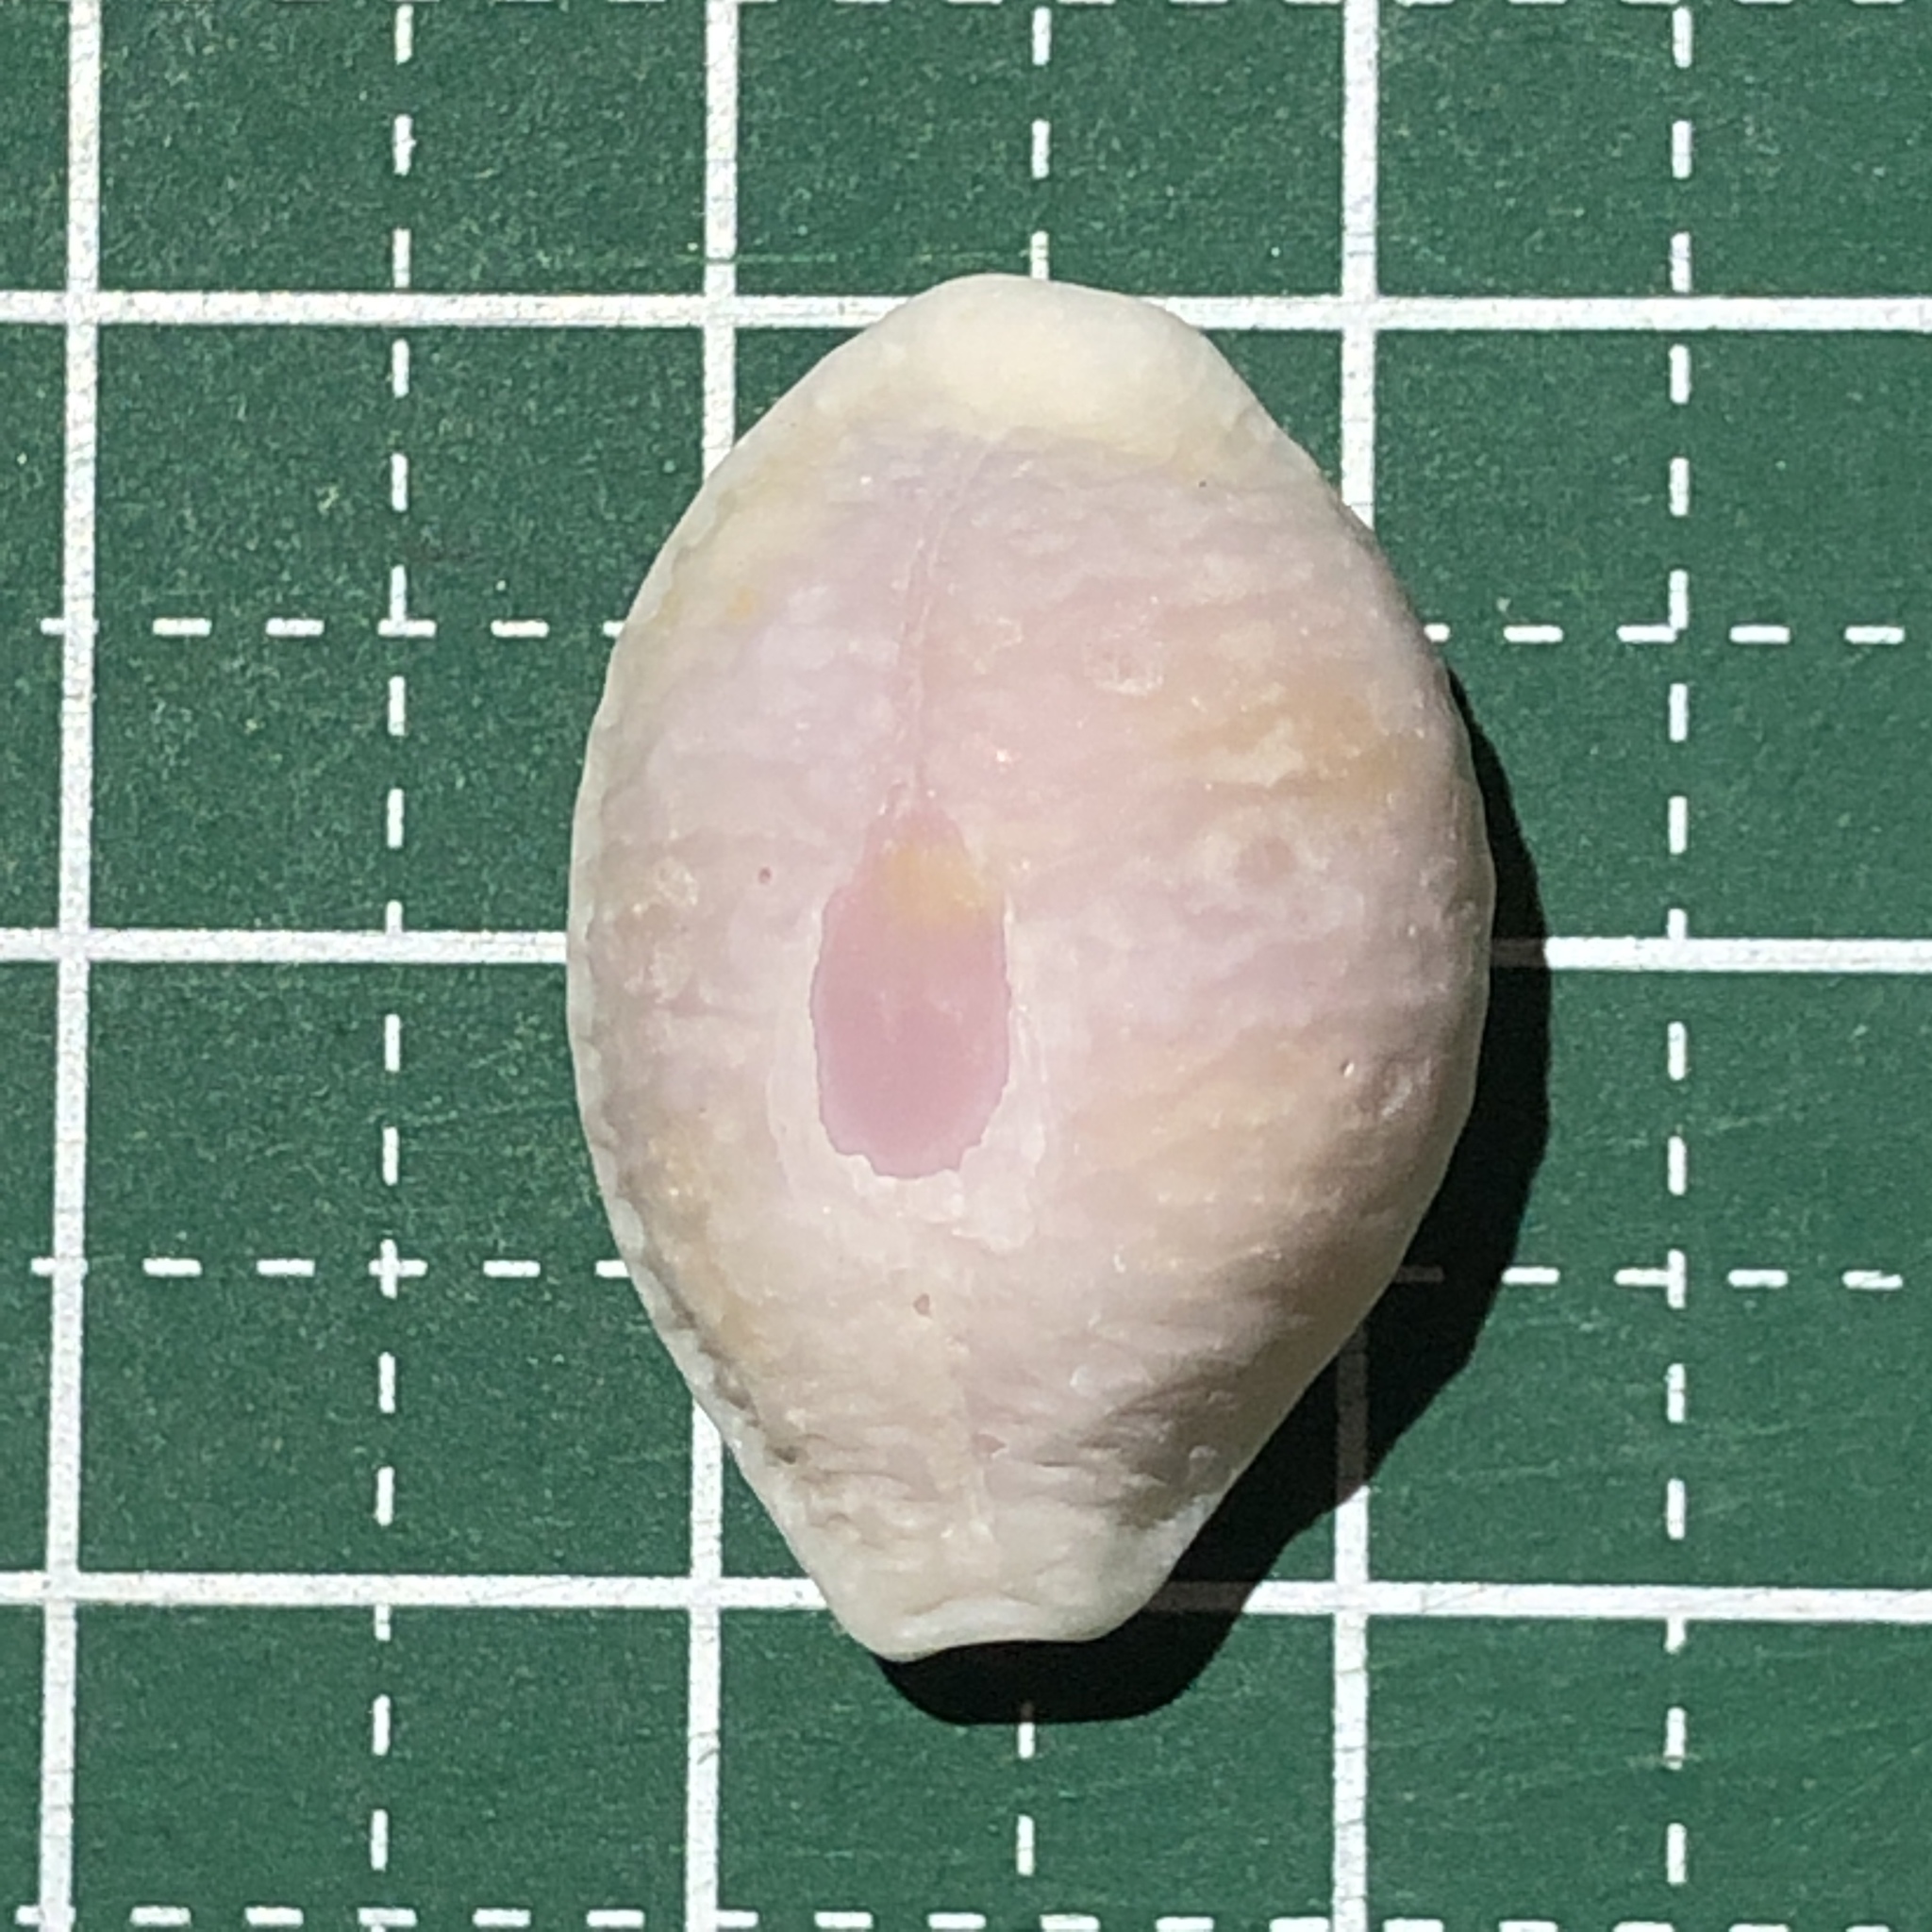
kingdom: Animalia
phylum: Mollusca
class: Gastropoda
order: Littorinimorpha
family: Cypraeidae
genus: Nucleolaria
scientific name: Nucleolaria nucleus
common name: Kernel cowry
